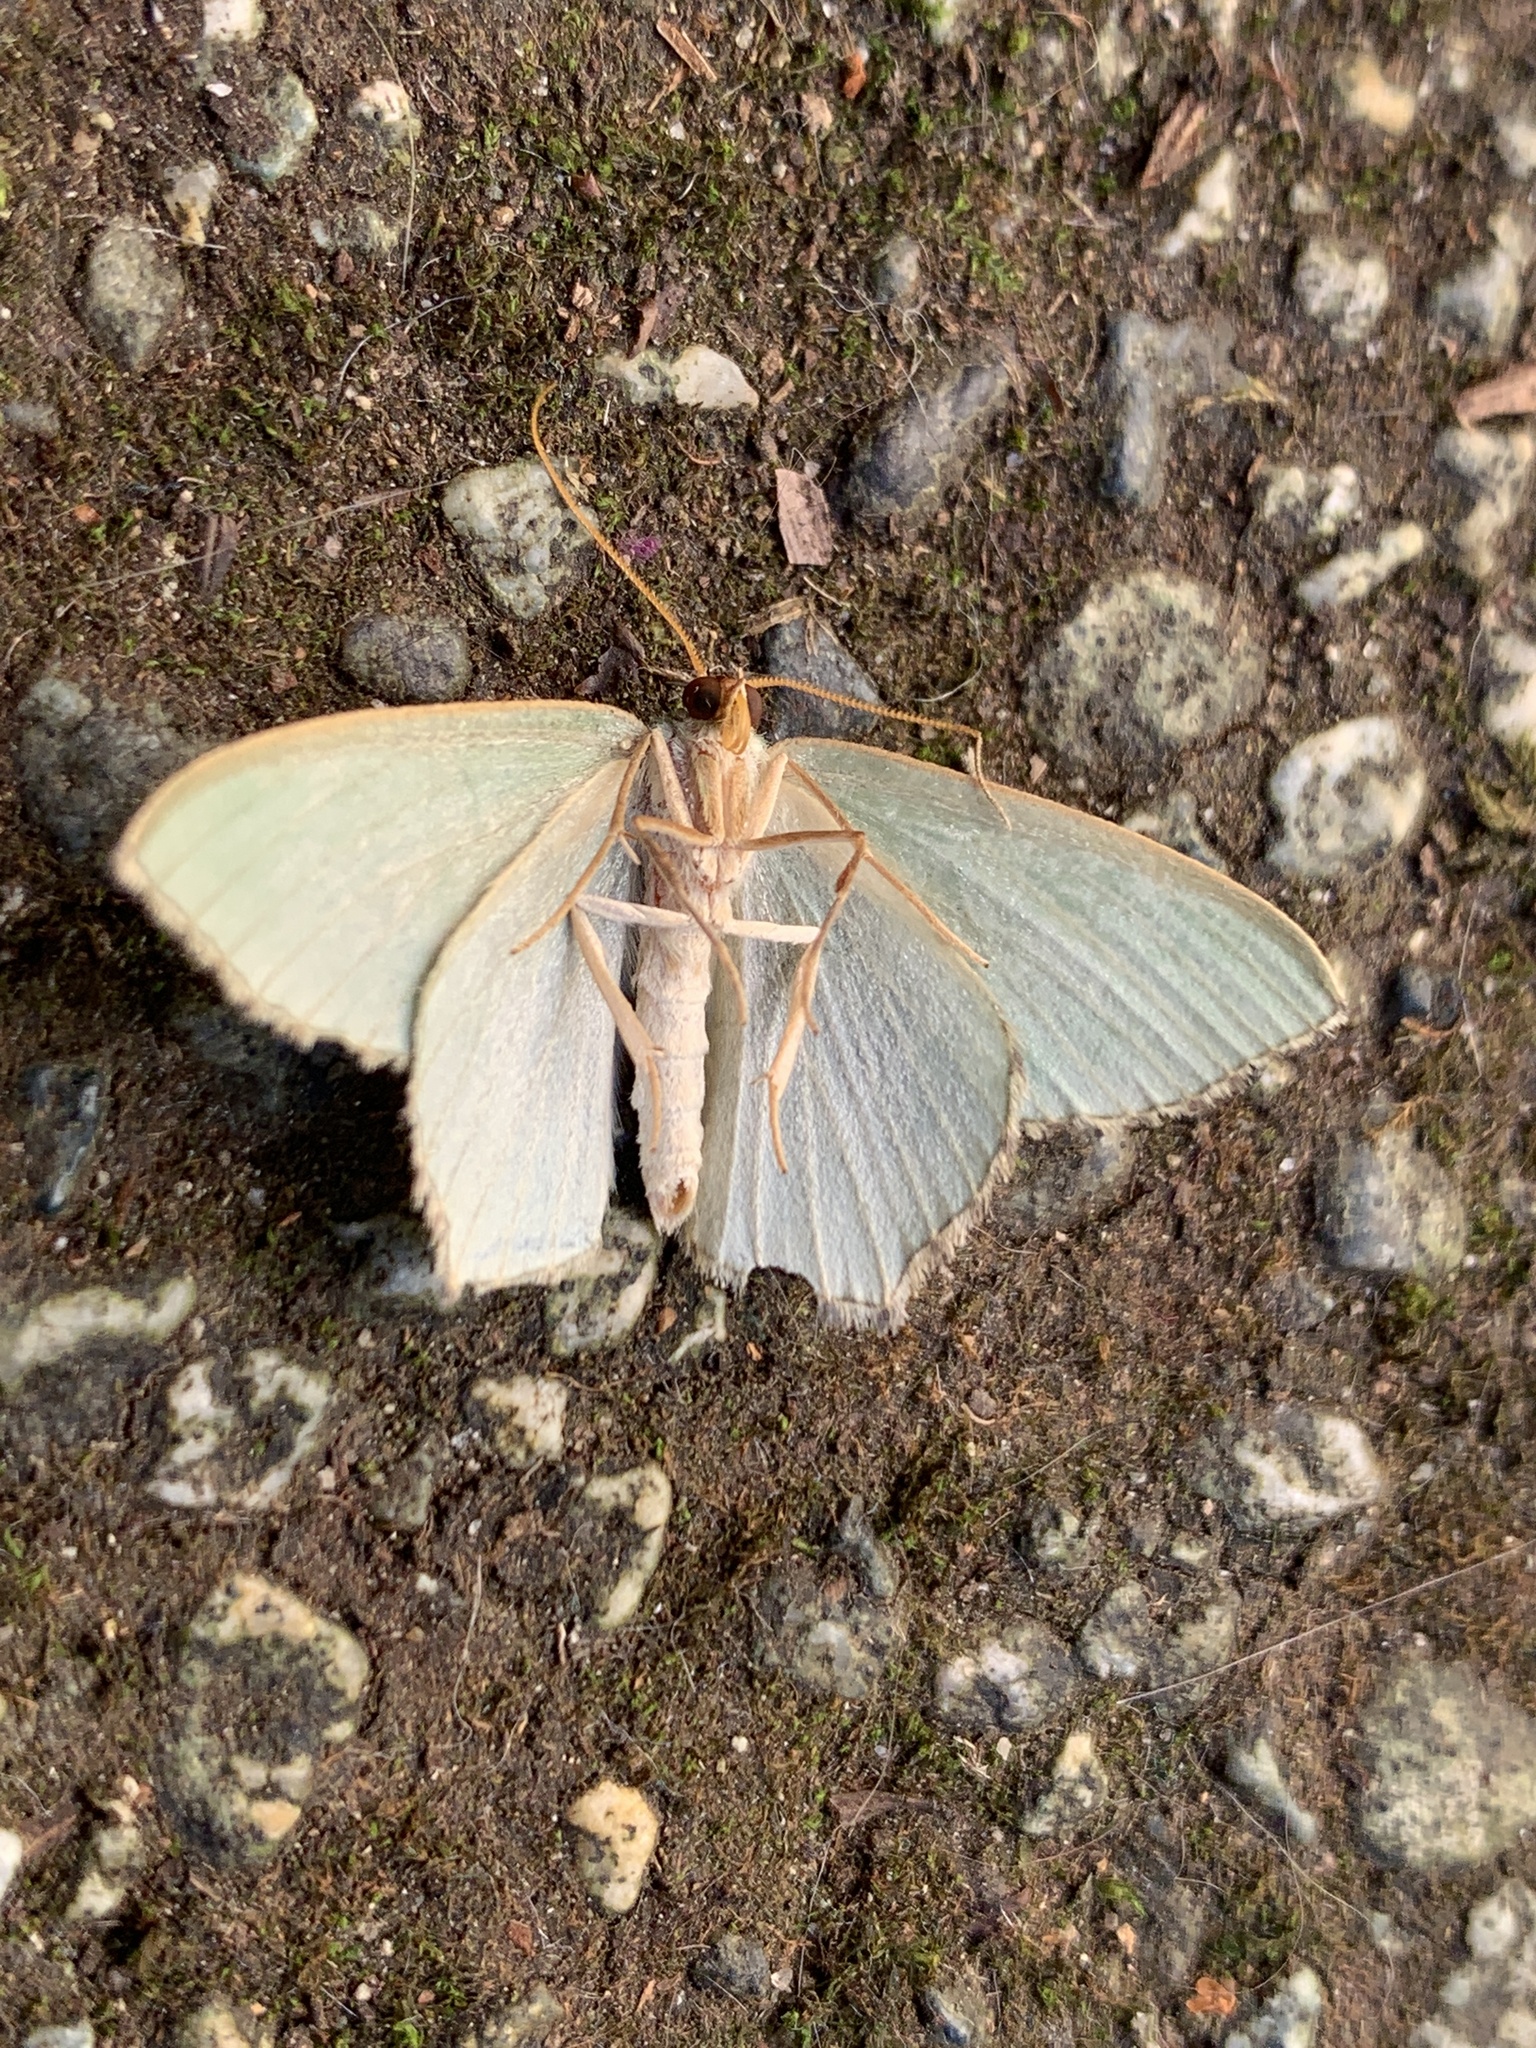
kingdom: Animalia
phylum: Arthropoda
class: Insecta
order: Lepidoptera
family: Geometridae
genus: Hemithea
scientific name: Hemithea aestivaria
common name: Common emerald
